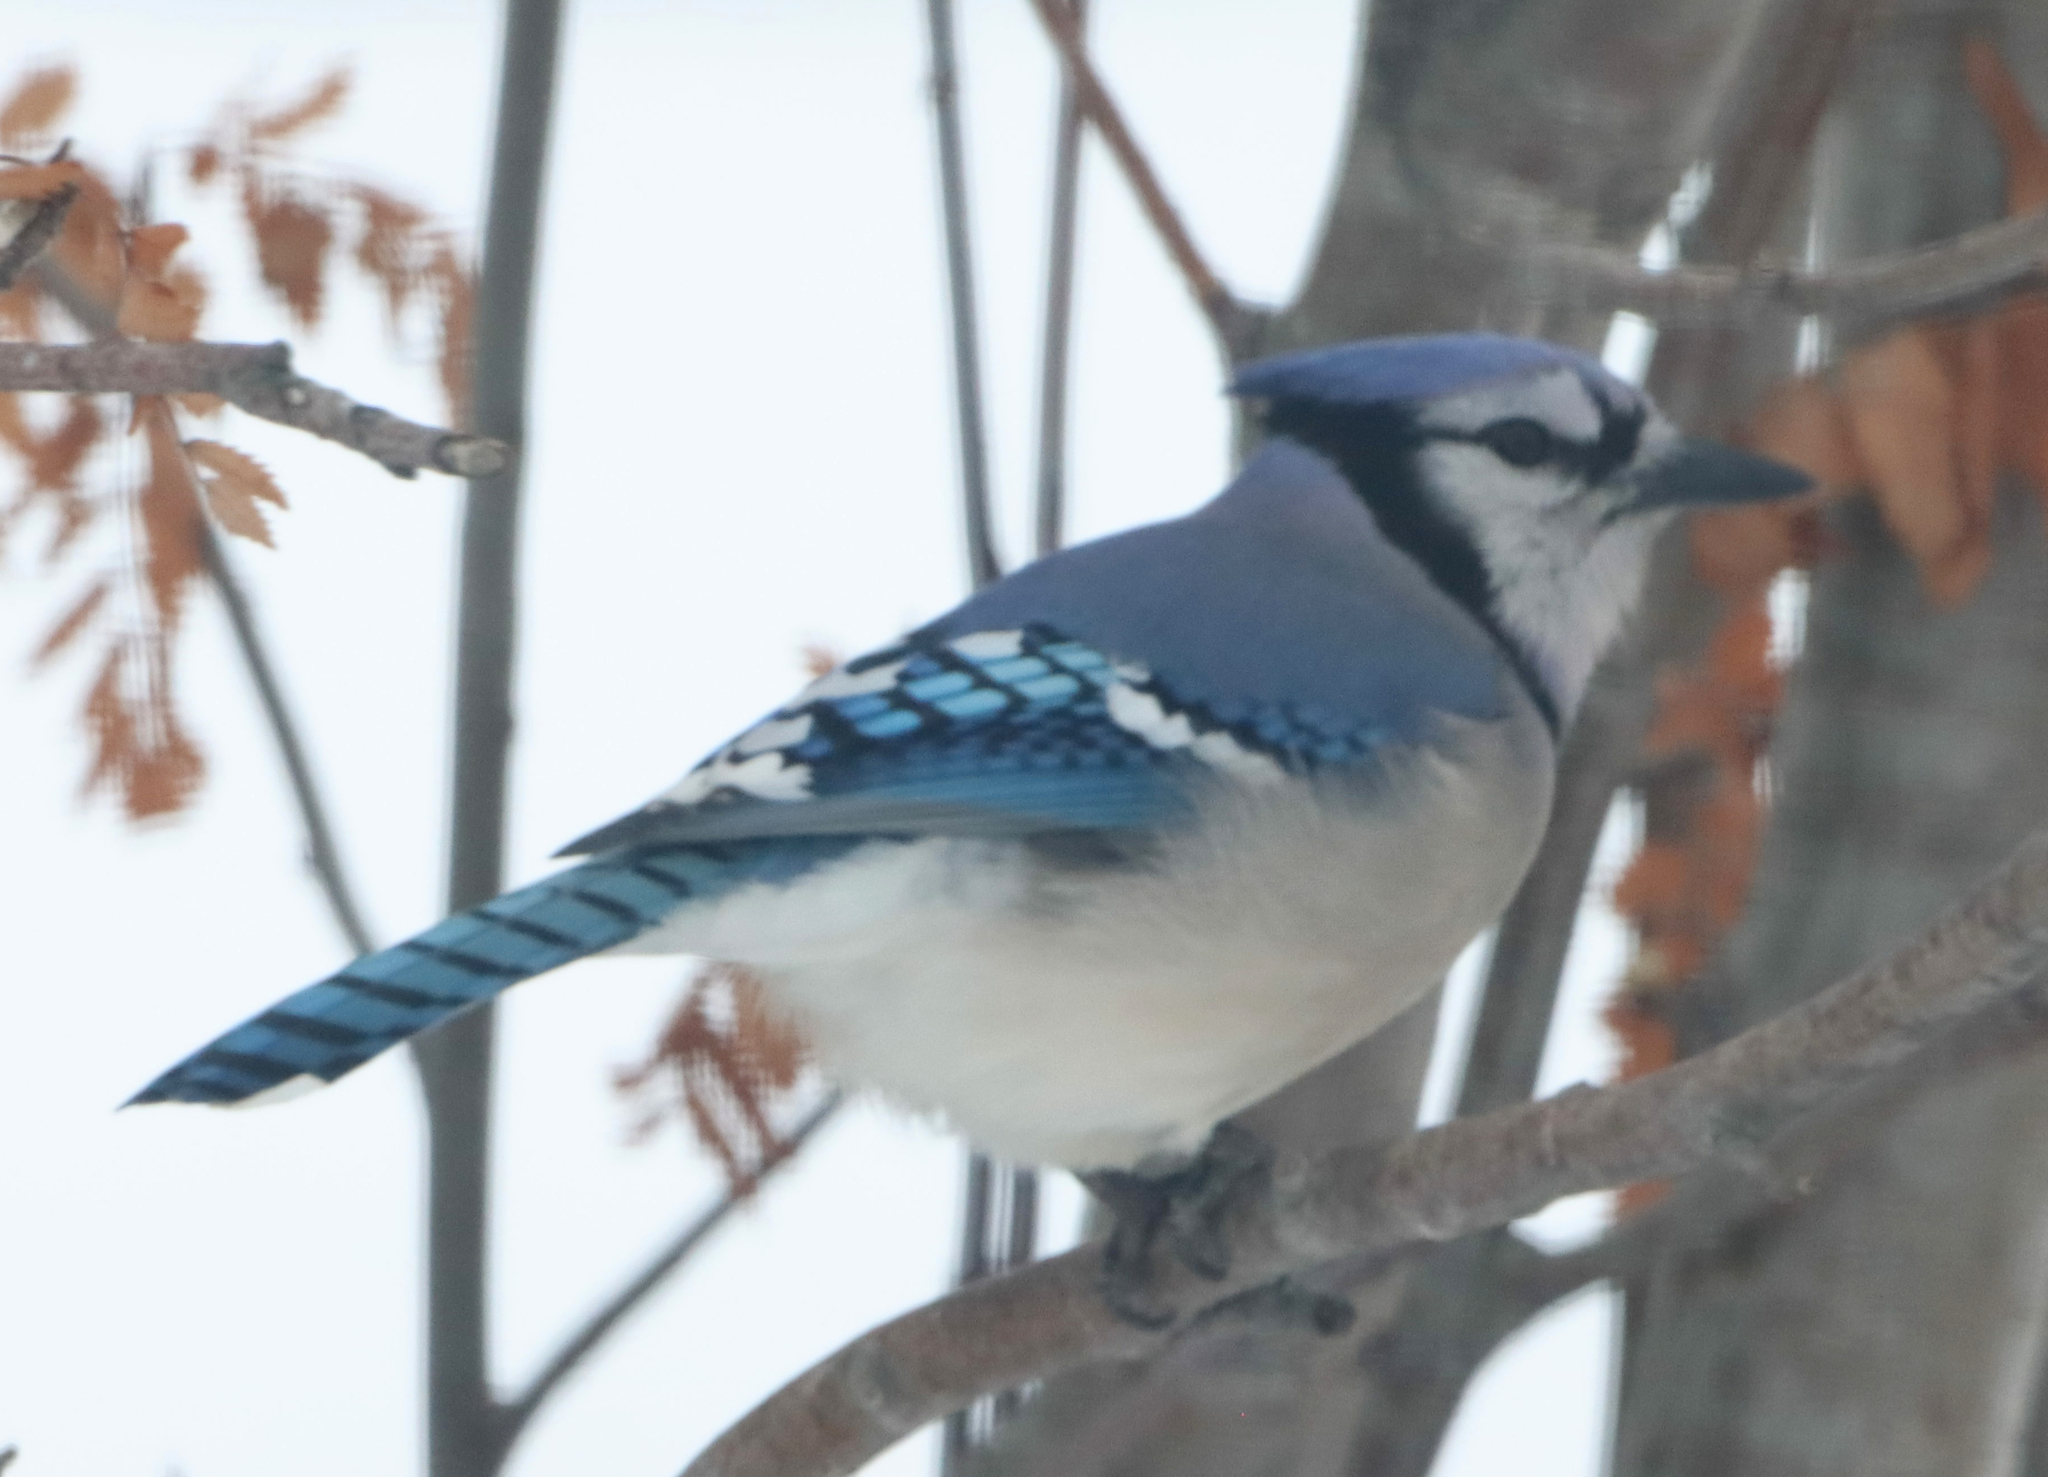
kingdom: Animalia
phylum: Chordata
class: Aves
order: Passeriformes
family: Corvidae
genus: Cyanocitta
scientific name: Cyanocitta cristata
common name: Blue jay
